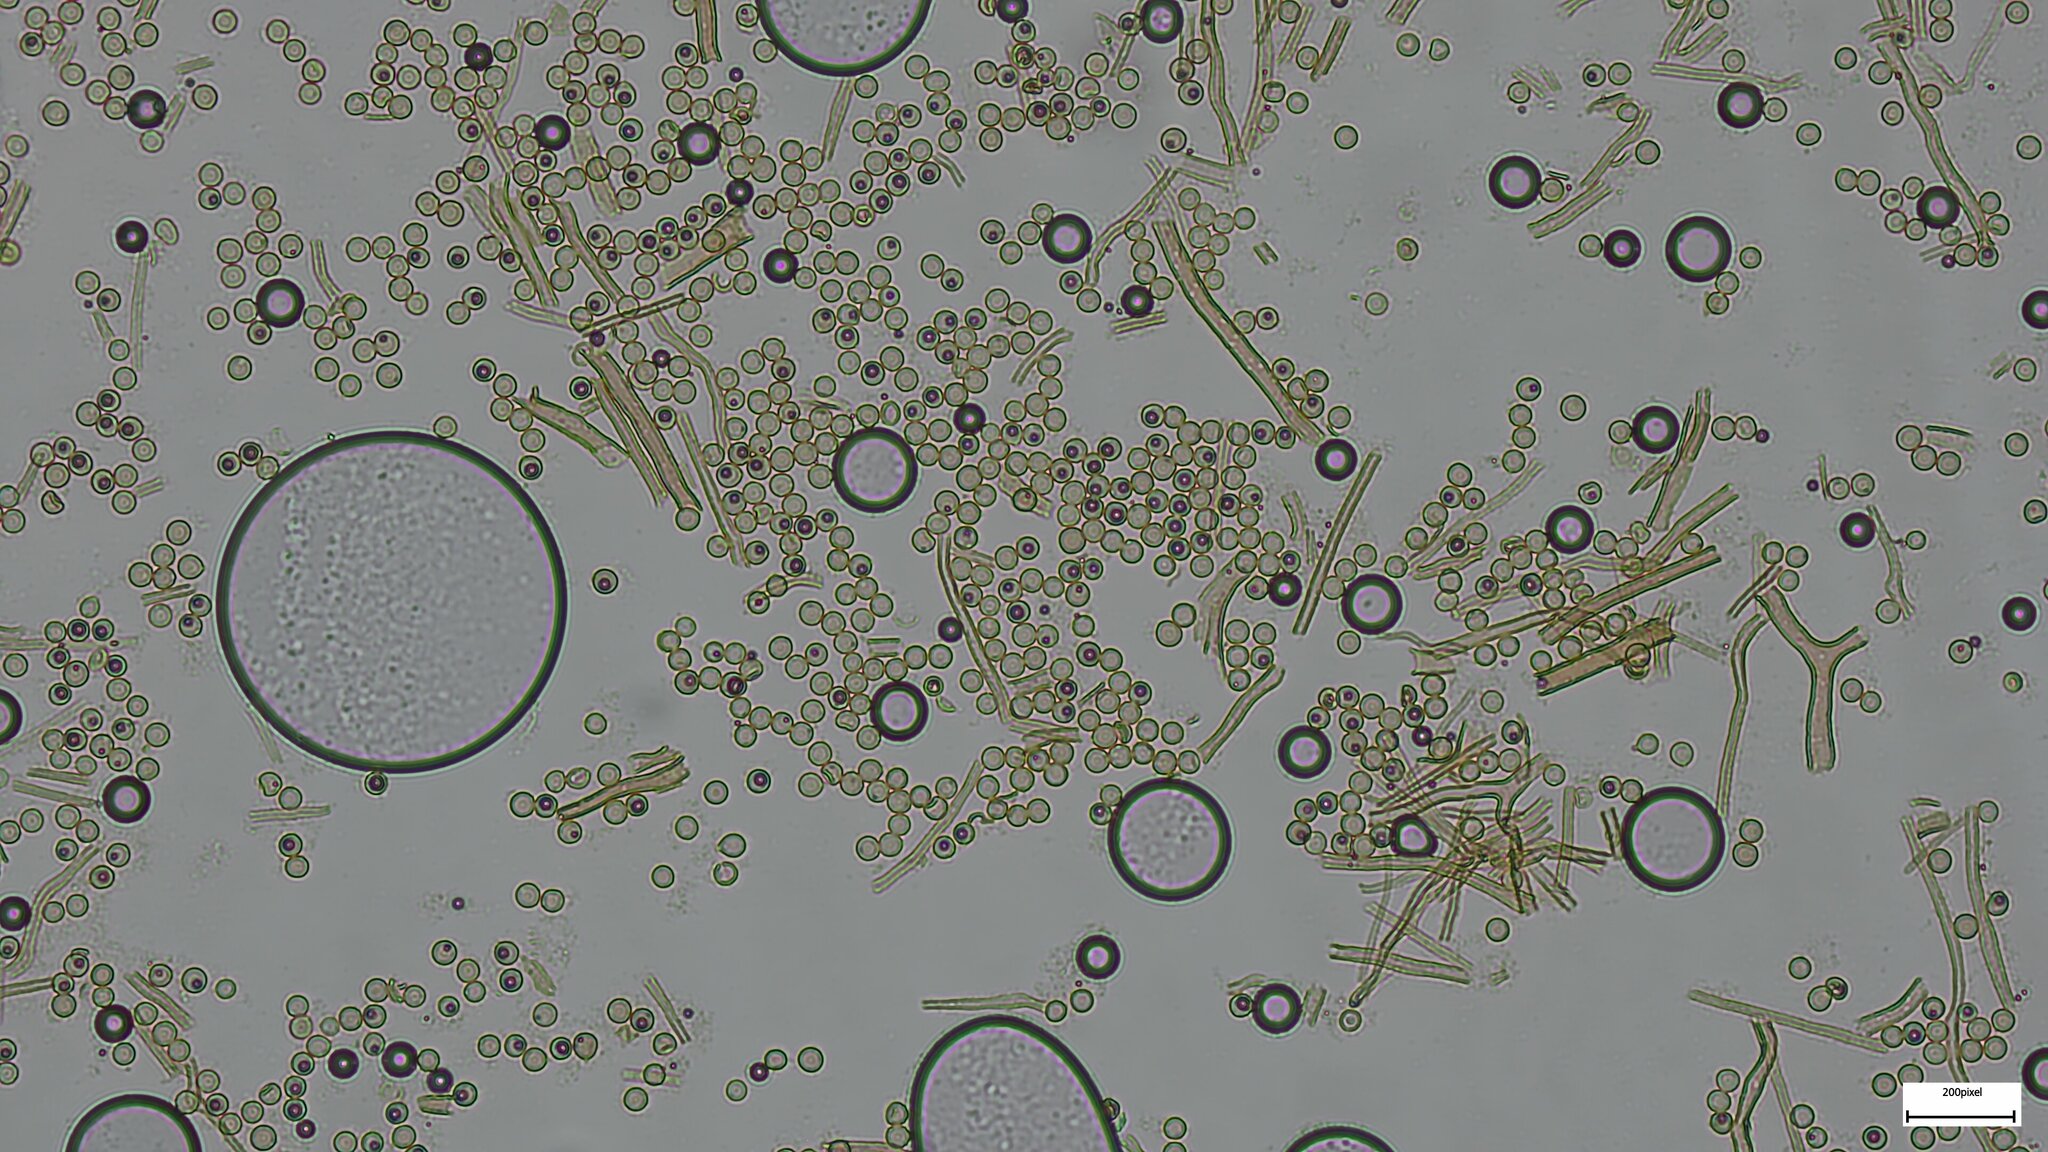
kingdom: Fungi
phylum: Basidiomycota
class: Agaricomycetes
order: Agaricales
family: Lycoperdaceae
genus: Lycoperdon
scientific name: Lycoperdon dermoxanthum
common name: Dwarf puffball
